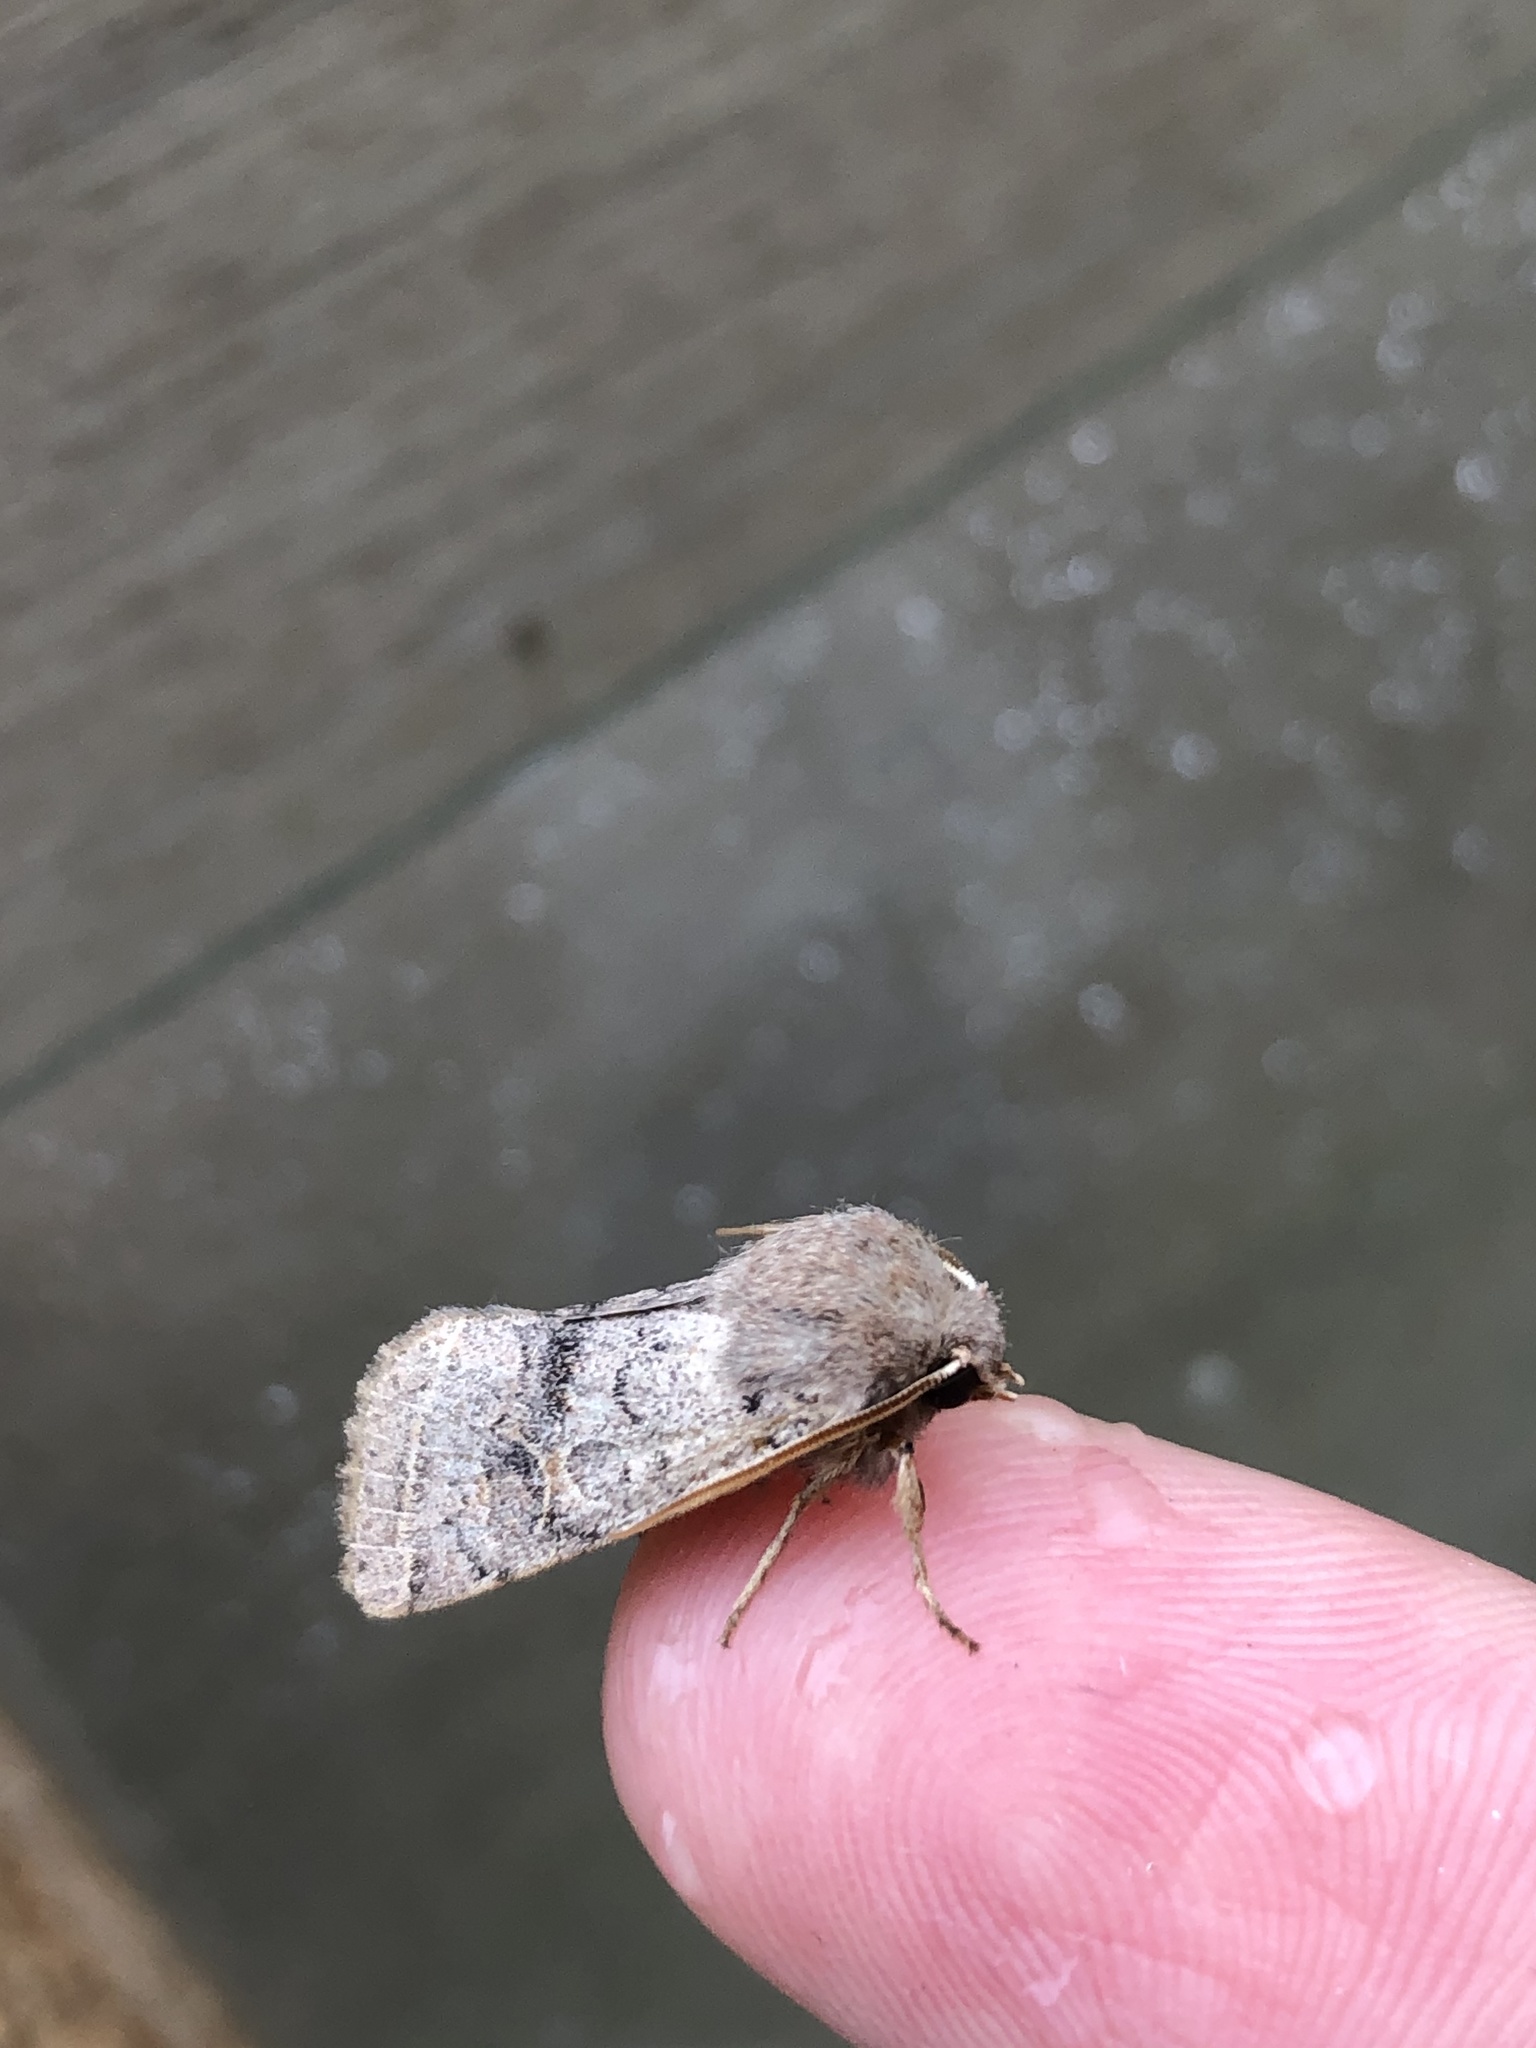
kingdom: Animalia
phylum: Arthropoda
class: Insecta
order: Lepidoptera
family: Noctuidae
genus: Orthosia
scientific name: Orthosia cerasi
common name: Common quaker
